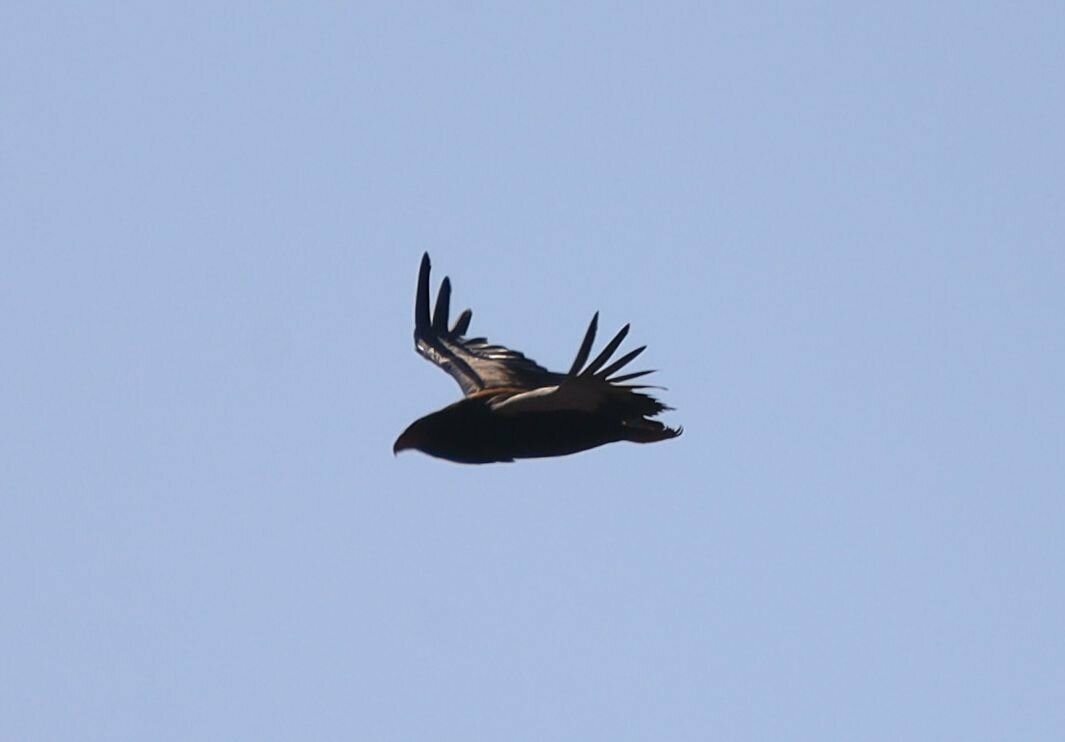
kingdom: Animalia
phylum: Chordata
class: Aves
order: Accipitriformes
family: Accipitridae
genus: Terathopius
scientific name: Terathopius ecaudatus
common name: Bateleur
